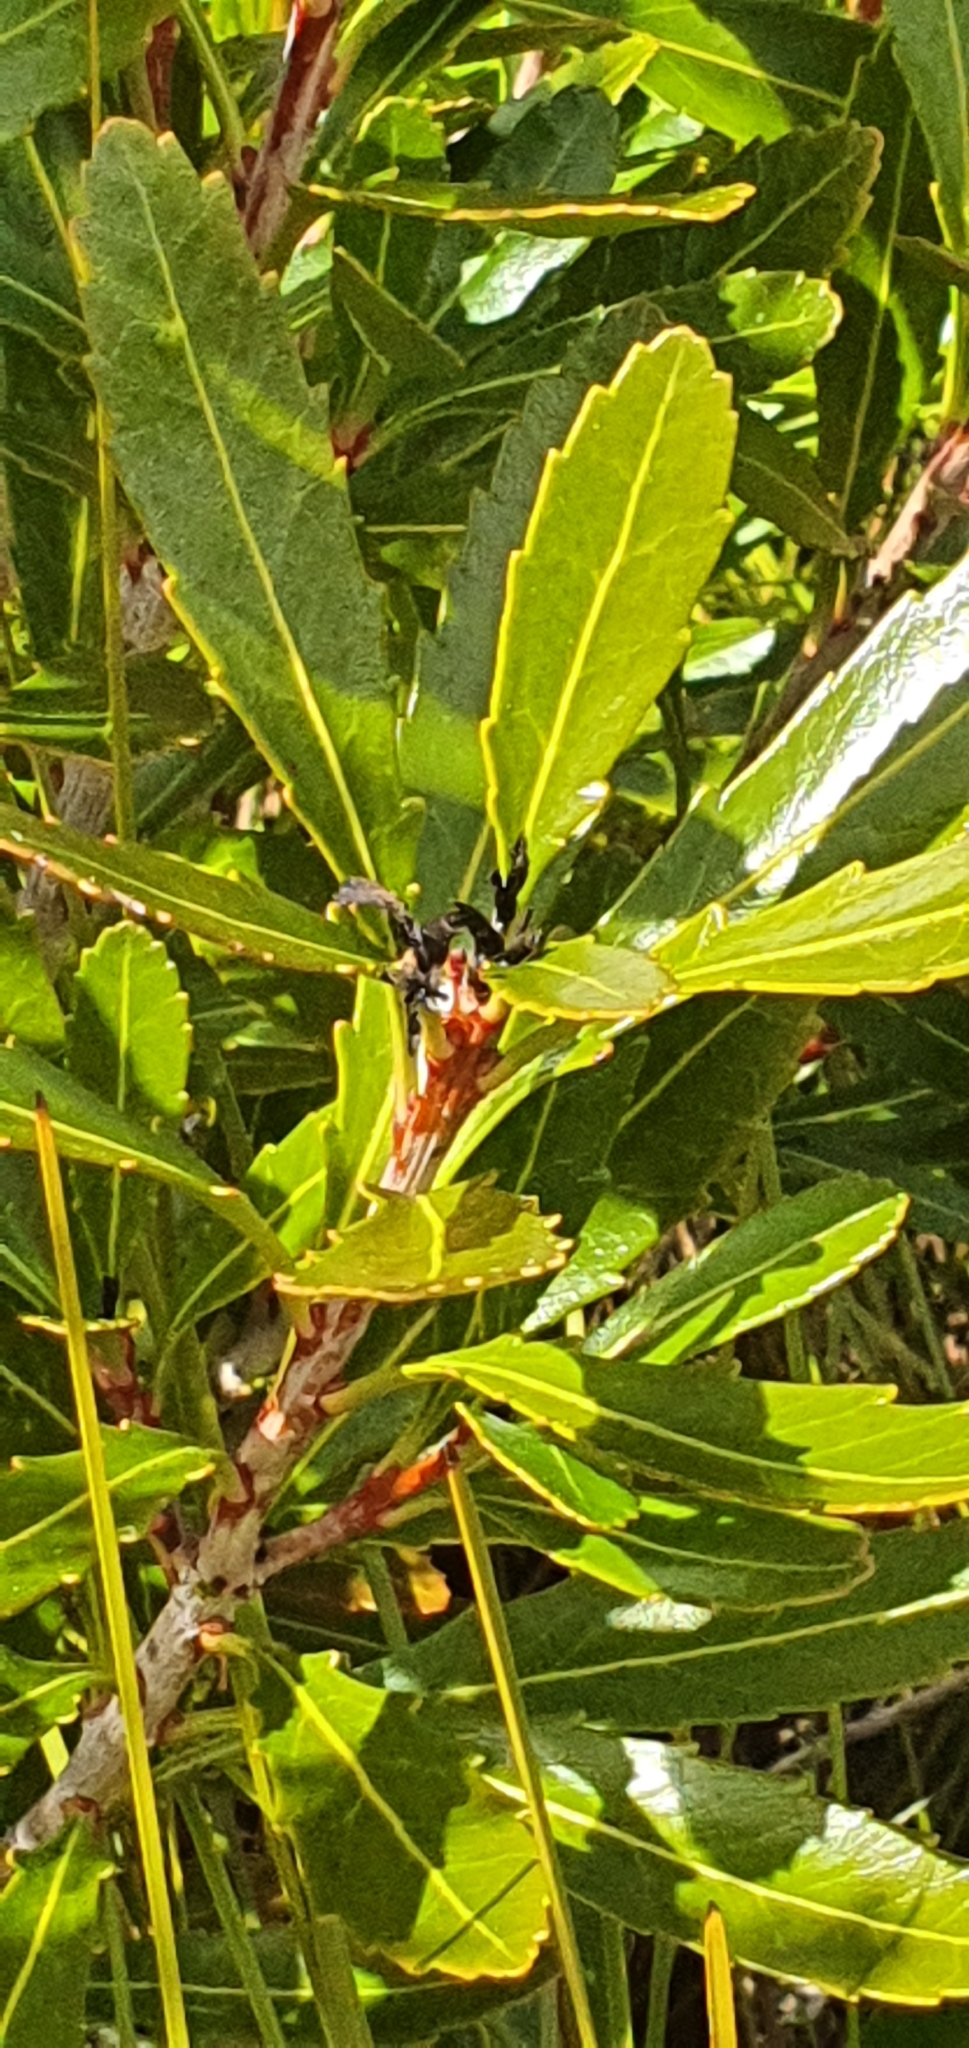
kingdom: Plantae
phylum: Tracheophyta
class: Magnoliopsida
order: Proteales
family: Proteaceae
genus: Cenarrhenes
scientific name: Cenarrhenes nitida
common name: Native plum
